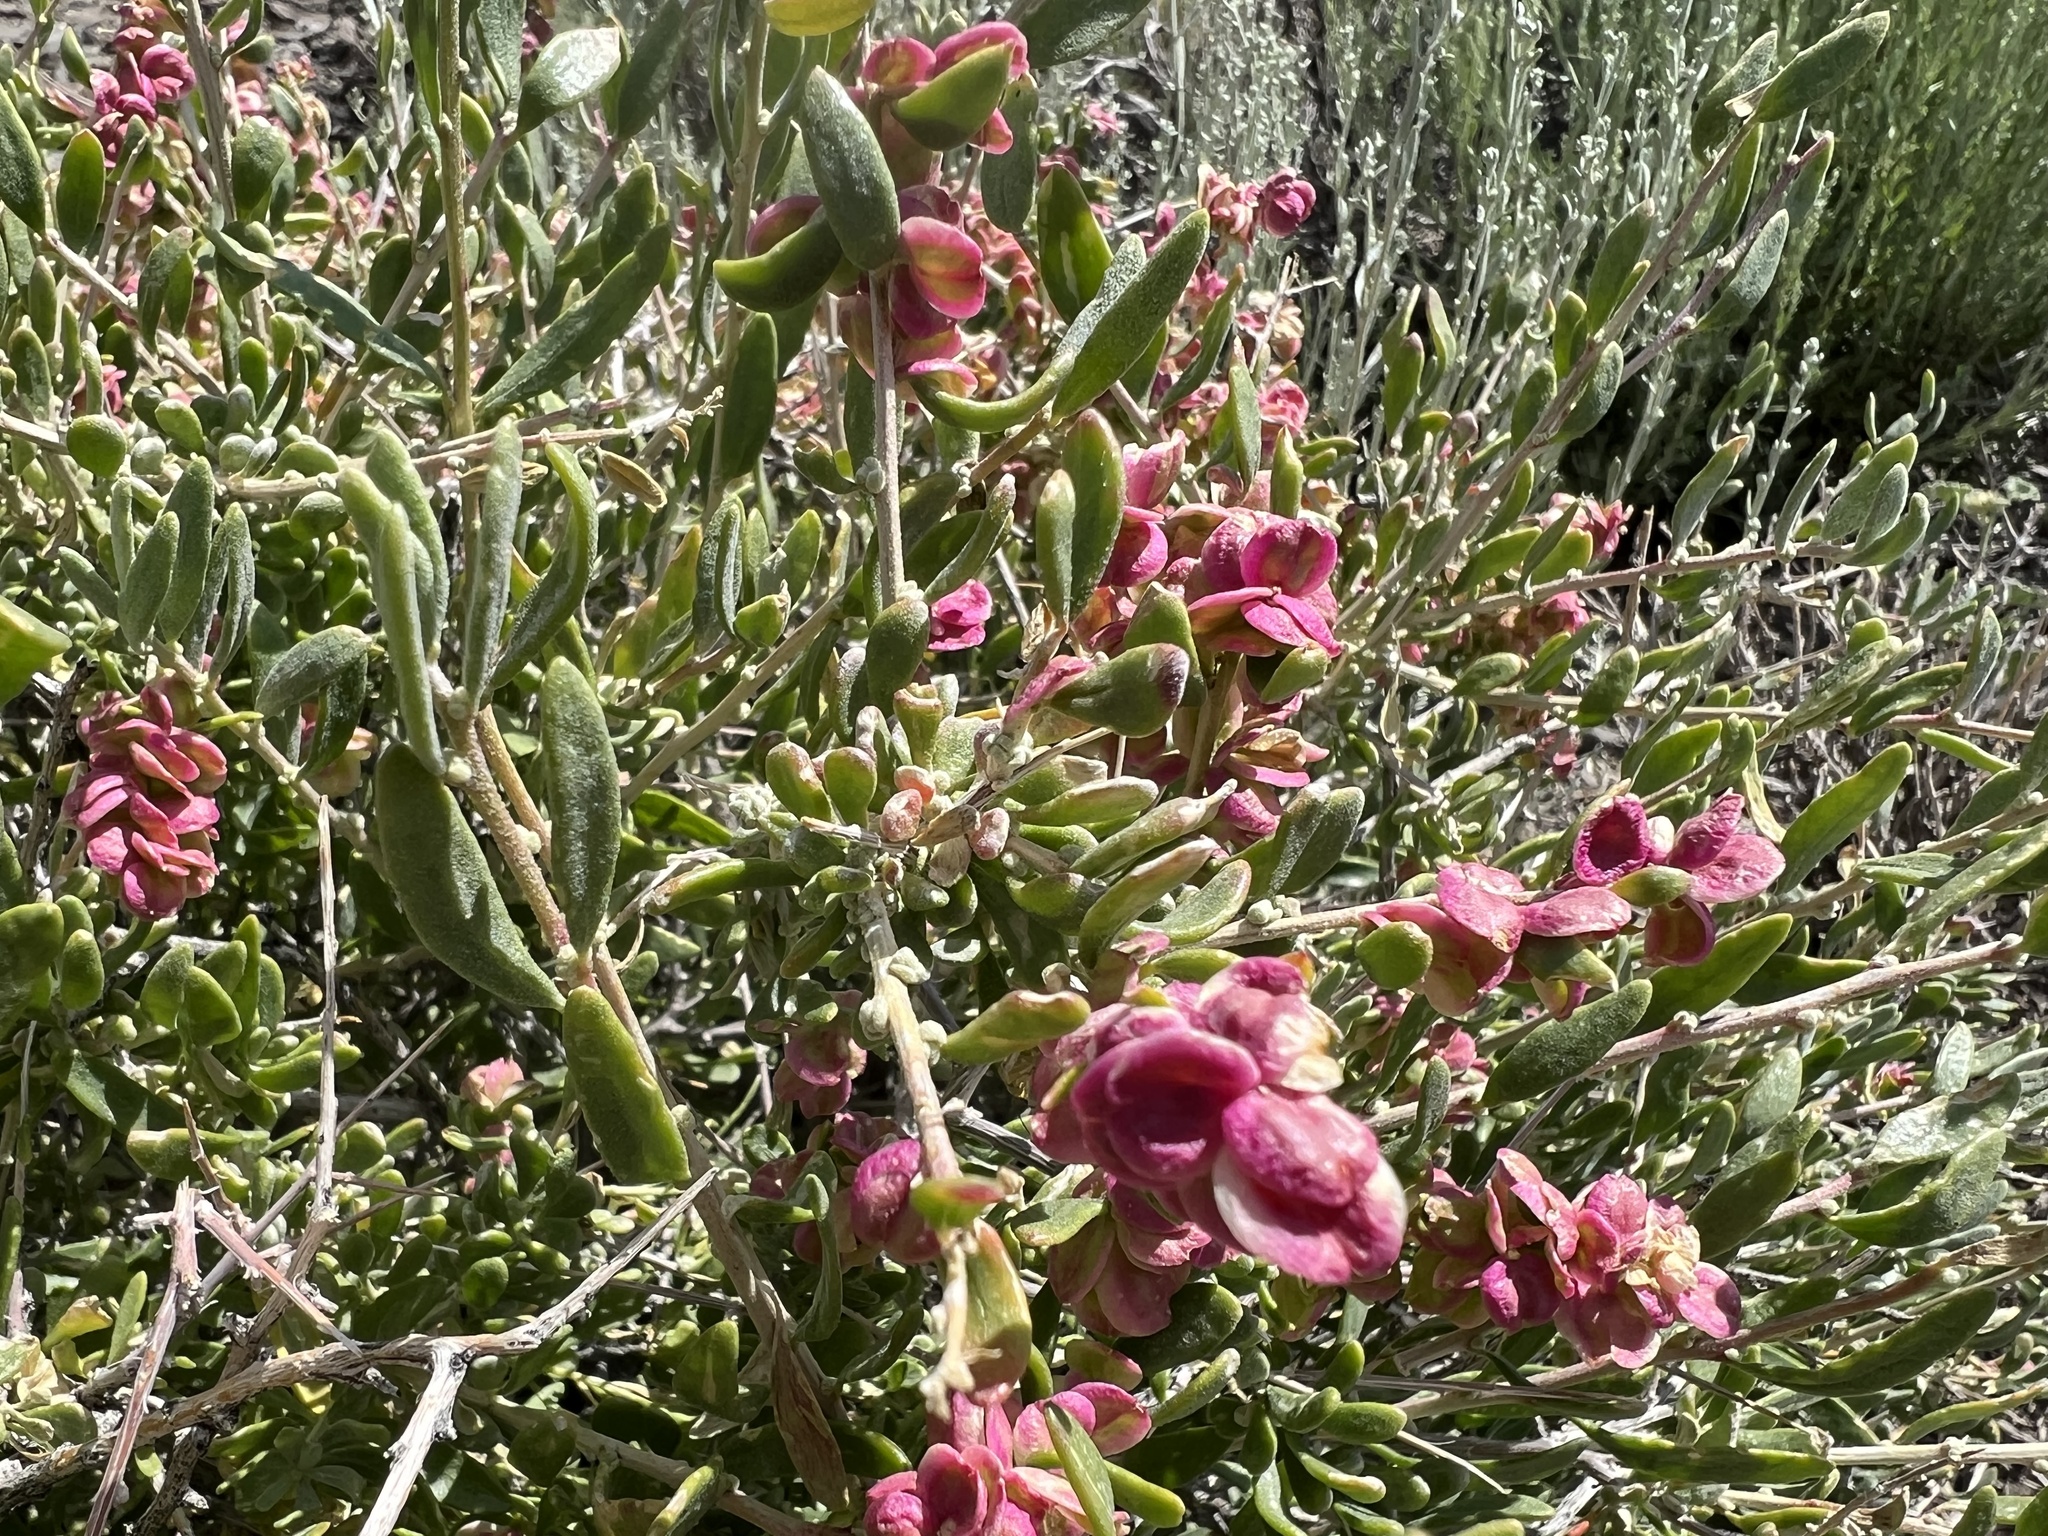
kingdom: Plantae
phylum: Tracheophyta
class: Magnoliopsida
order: Caryophyllales
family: Amaranthaceae
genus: Grayia
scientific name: Grayia spinosa
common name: Spiny hopsage
